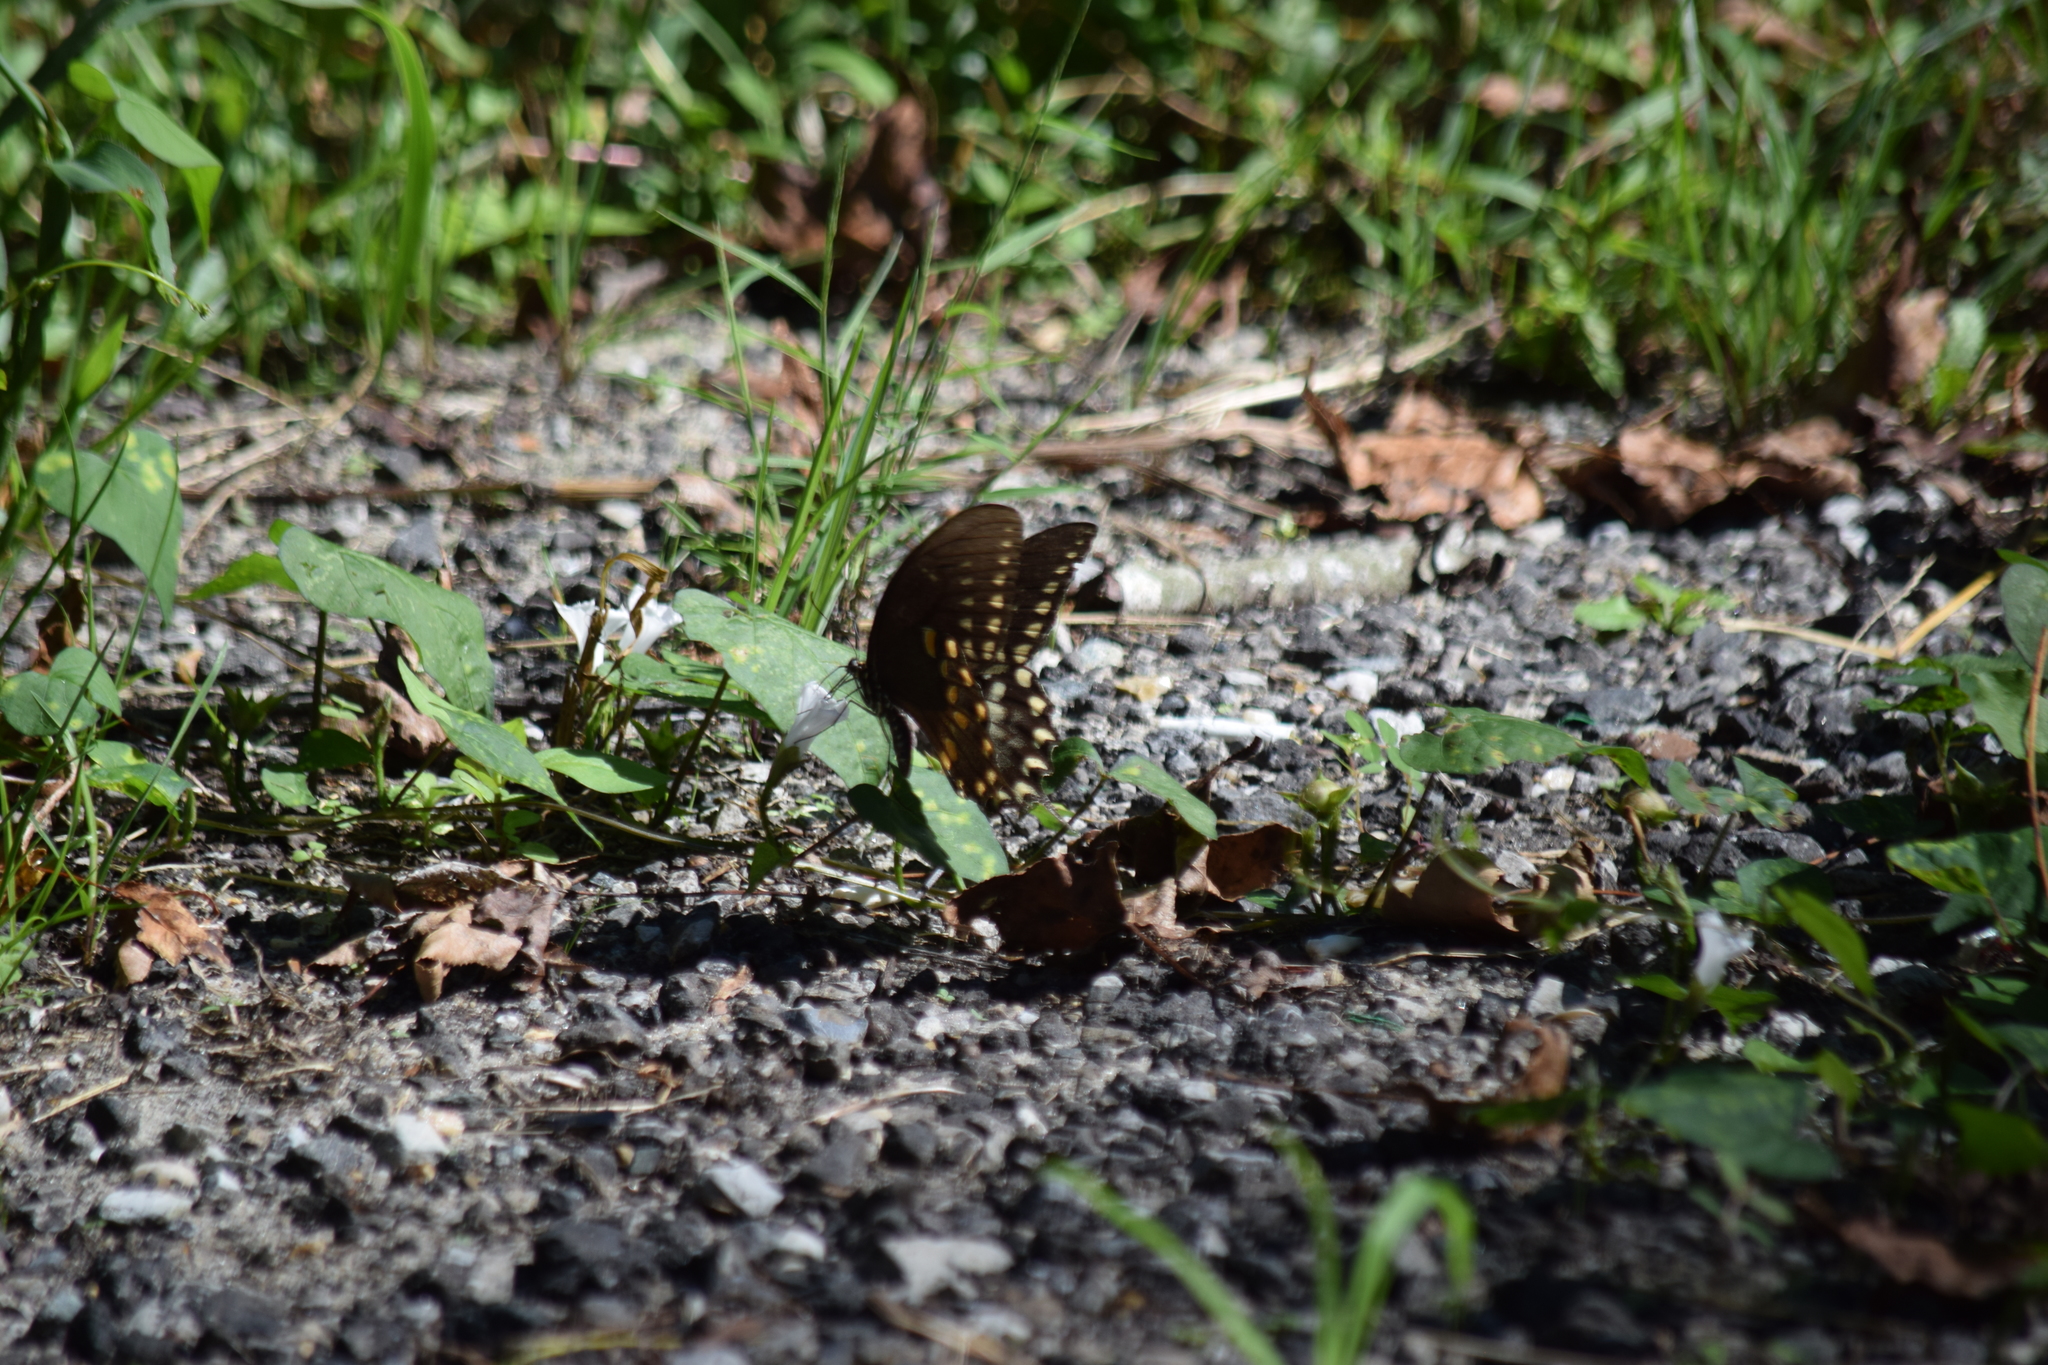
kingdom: Animalia
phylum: Arthropoda
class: Insecta
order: Lepidoptera
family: Papilionidae
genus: Papilio
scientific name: Papilio troilus
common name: Spicebush swallowtail
